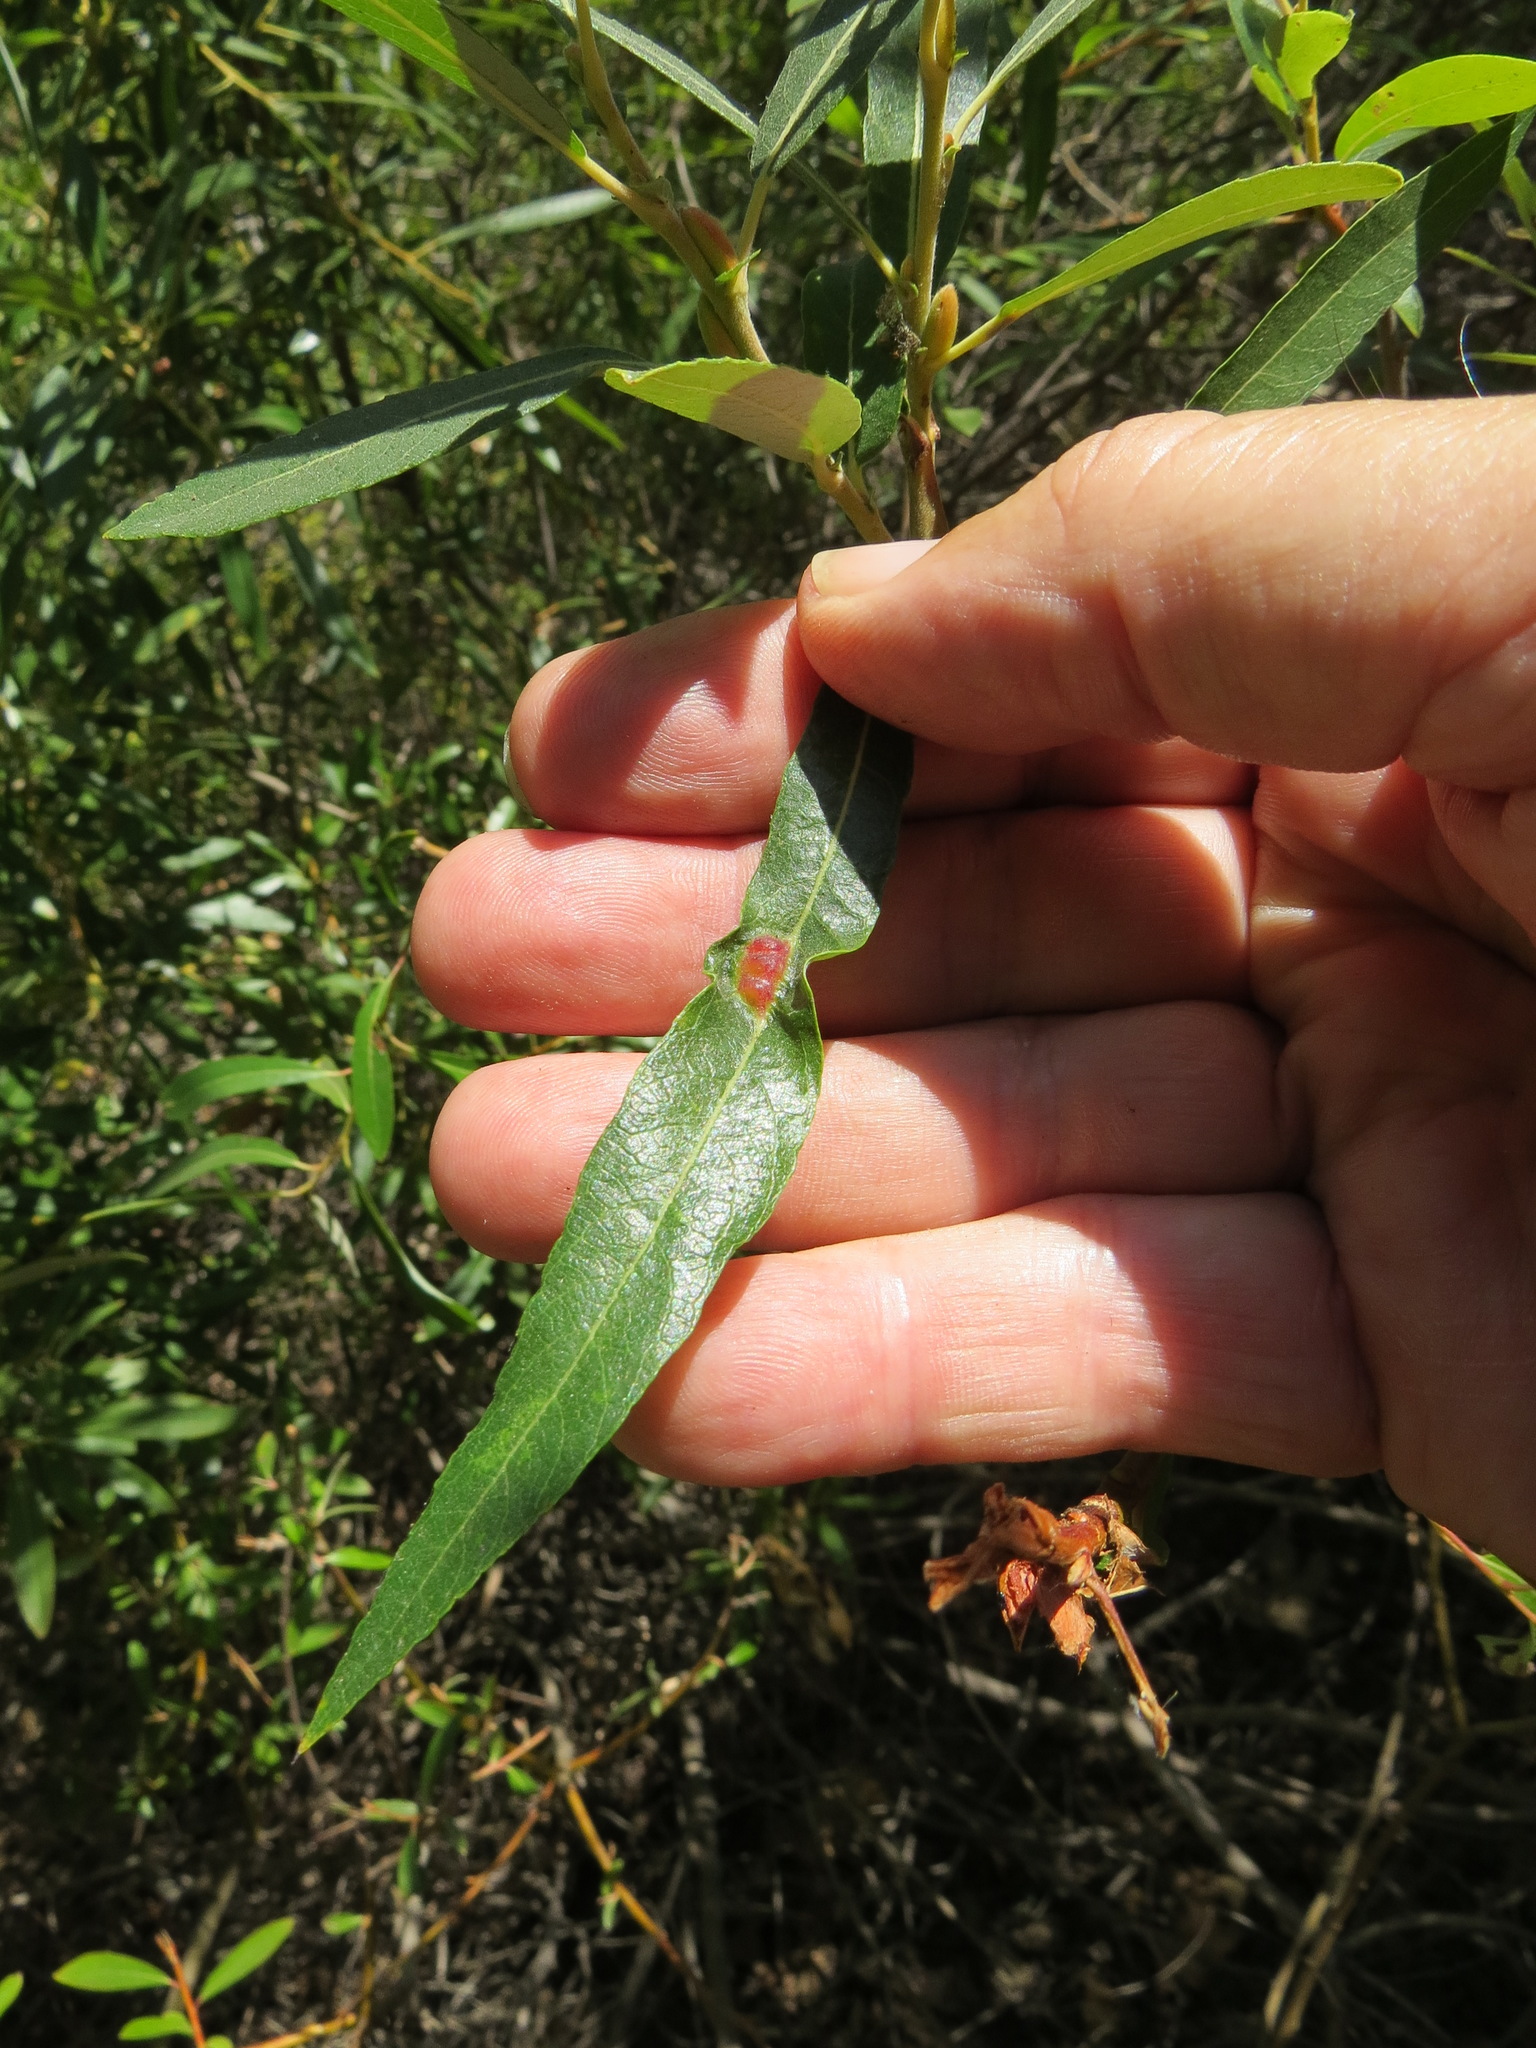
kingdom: Animalia
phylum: Arthropoda
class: Insecta
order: Diptera
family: Cecidomyiidae
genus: Iteomyia
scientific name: Iteomyia
